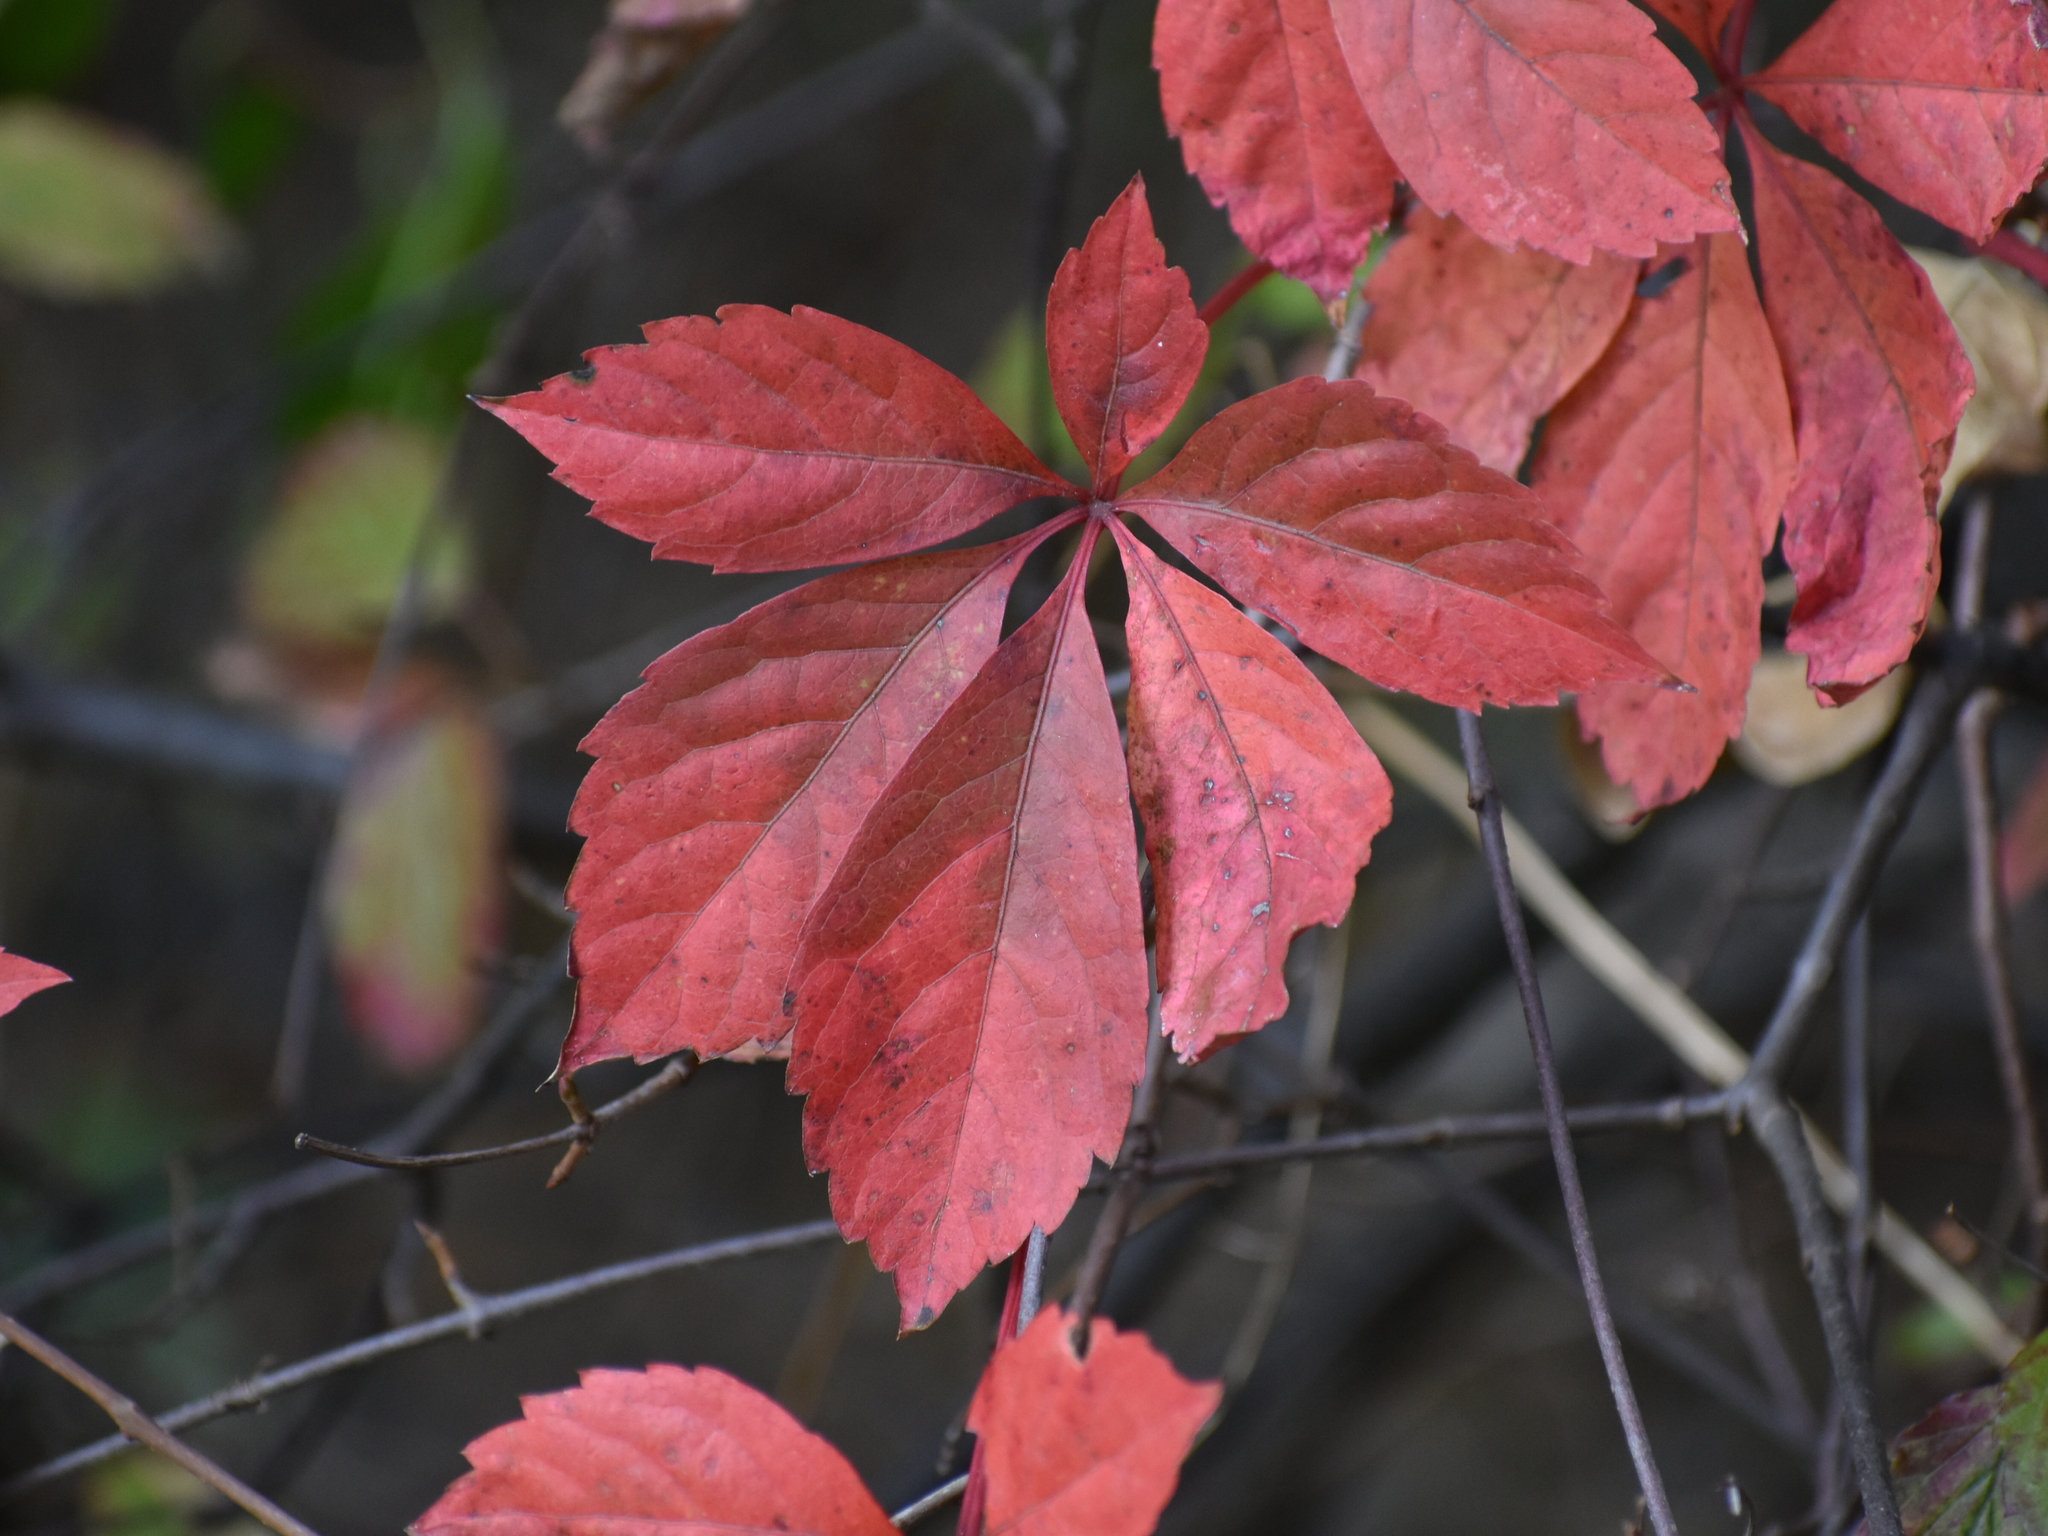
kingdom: Plantae
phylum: Tracheophyta
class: Magnoliopsida
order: Vitales
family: Vitaceae
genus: Parthenocissus
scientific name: Parthenocissus quinquefolia
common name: Virginia-creeper
